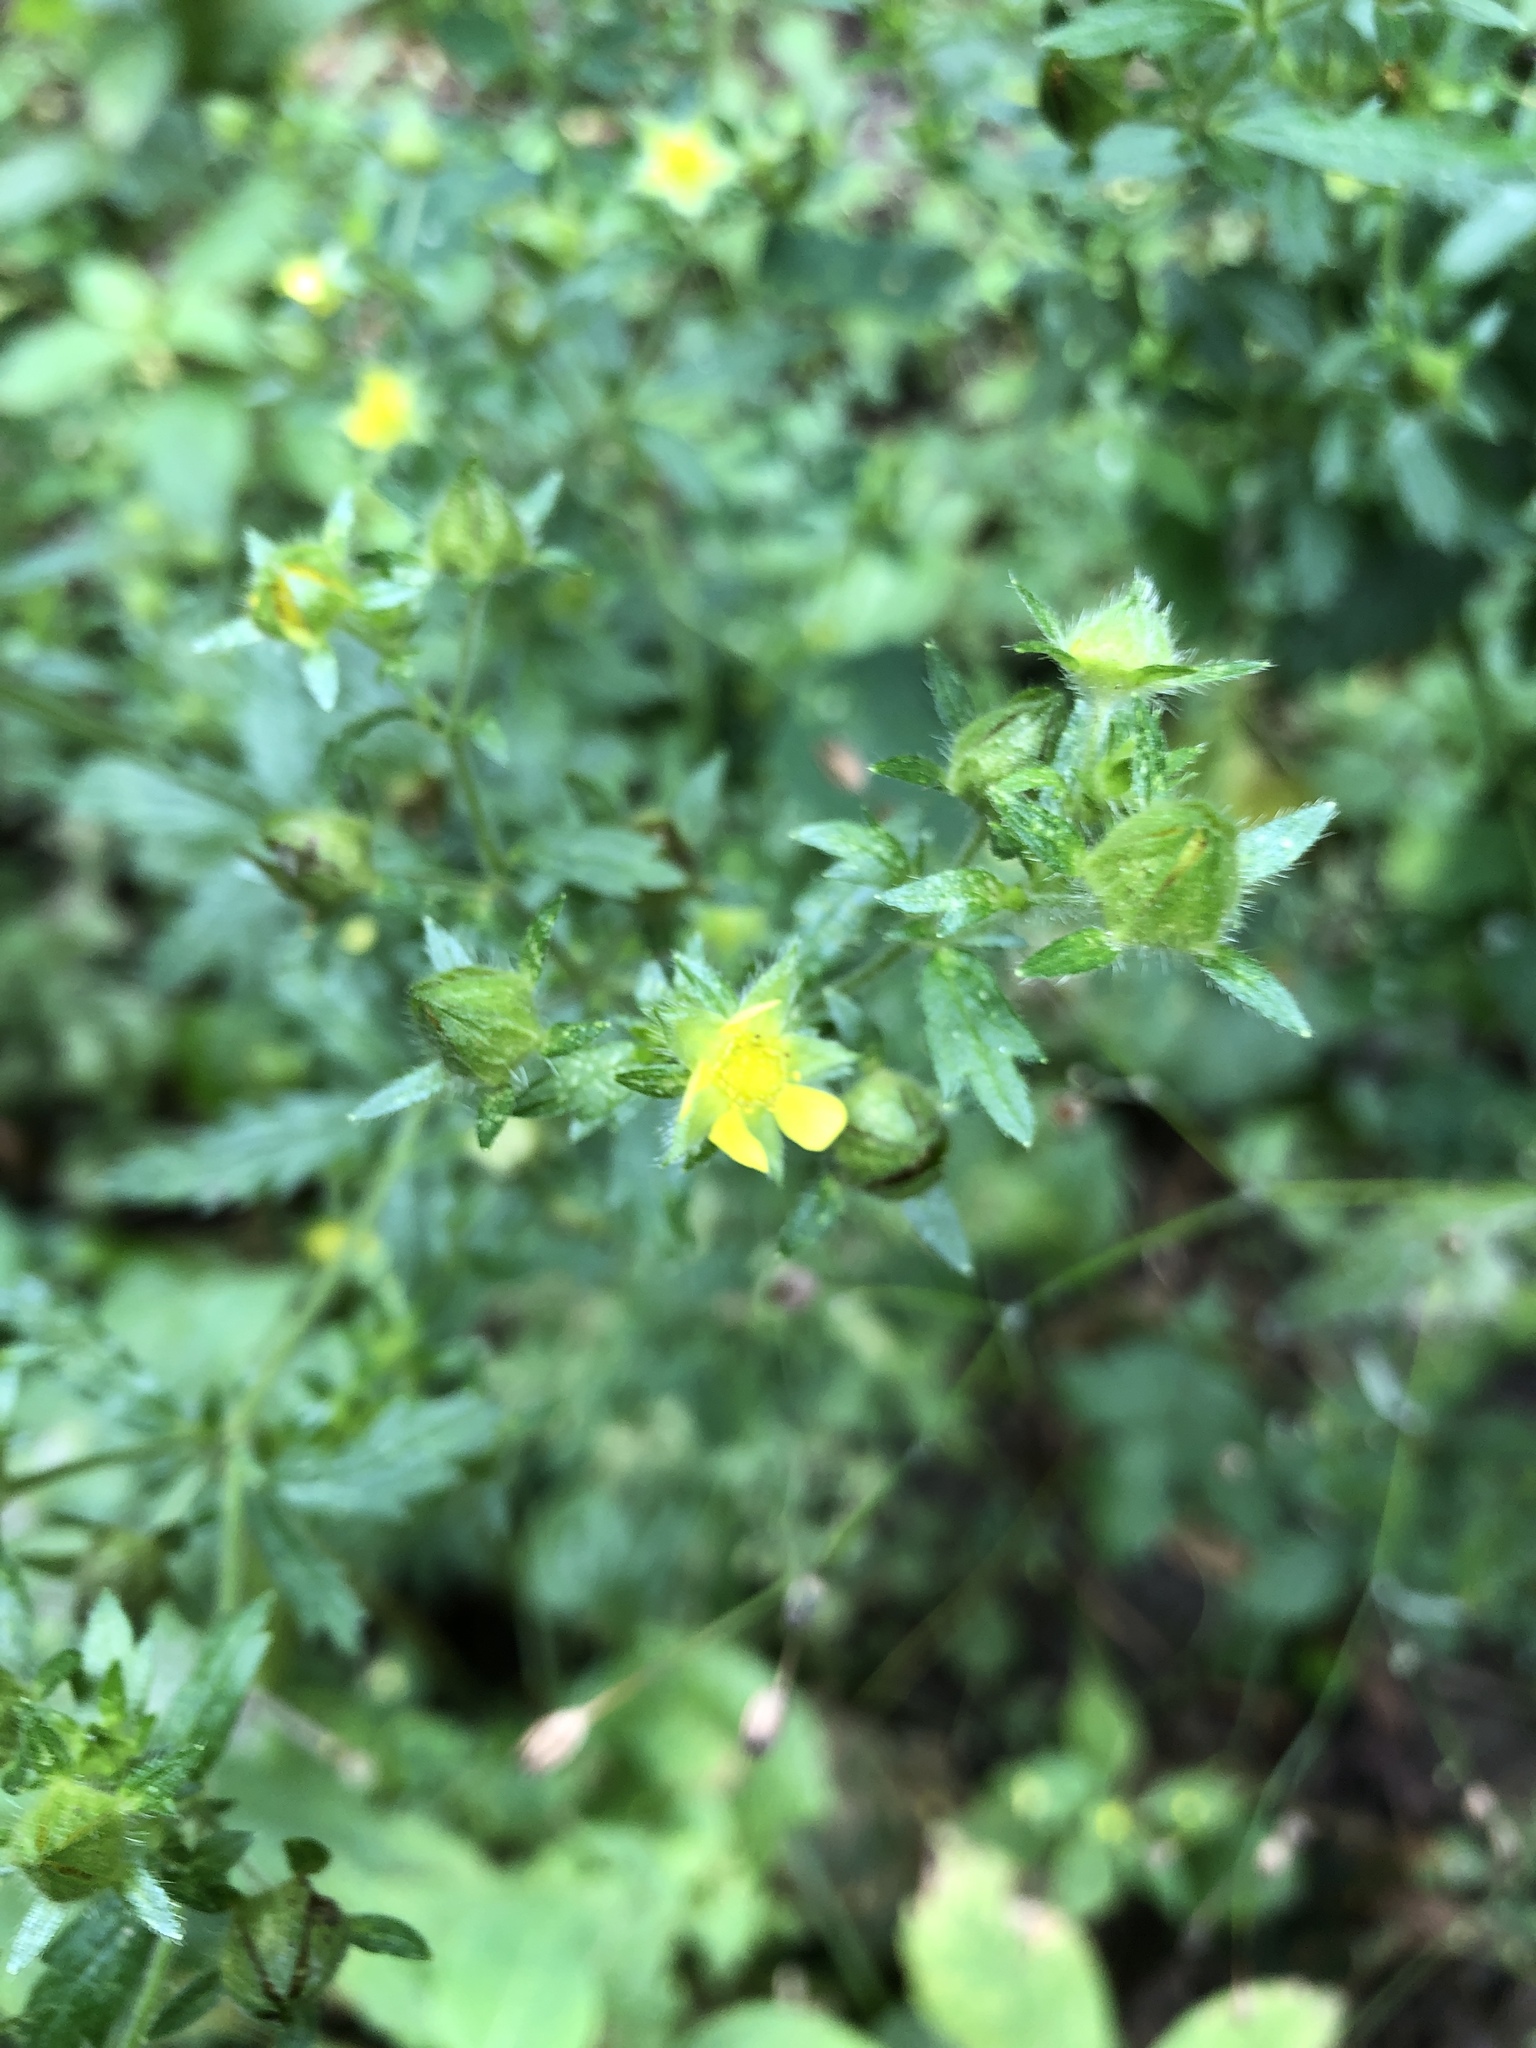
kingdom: Plantae
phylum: Tracheophyta
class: Magnoliopsida
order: Rosales
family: Rosaceae
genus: Potentilla
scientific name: Potentilla norvegica
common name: Ternate-leaved cinquefoil
